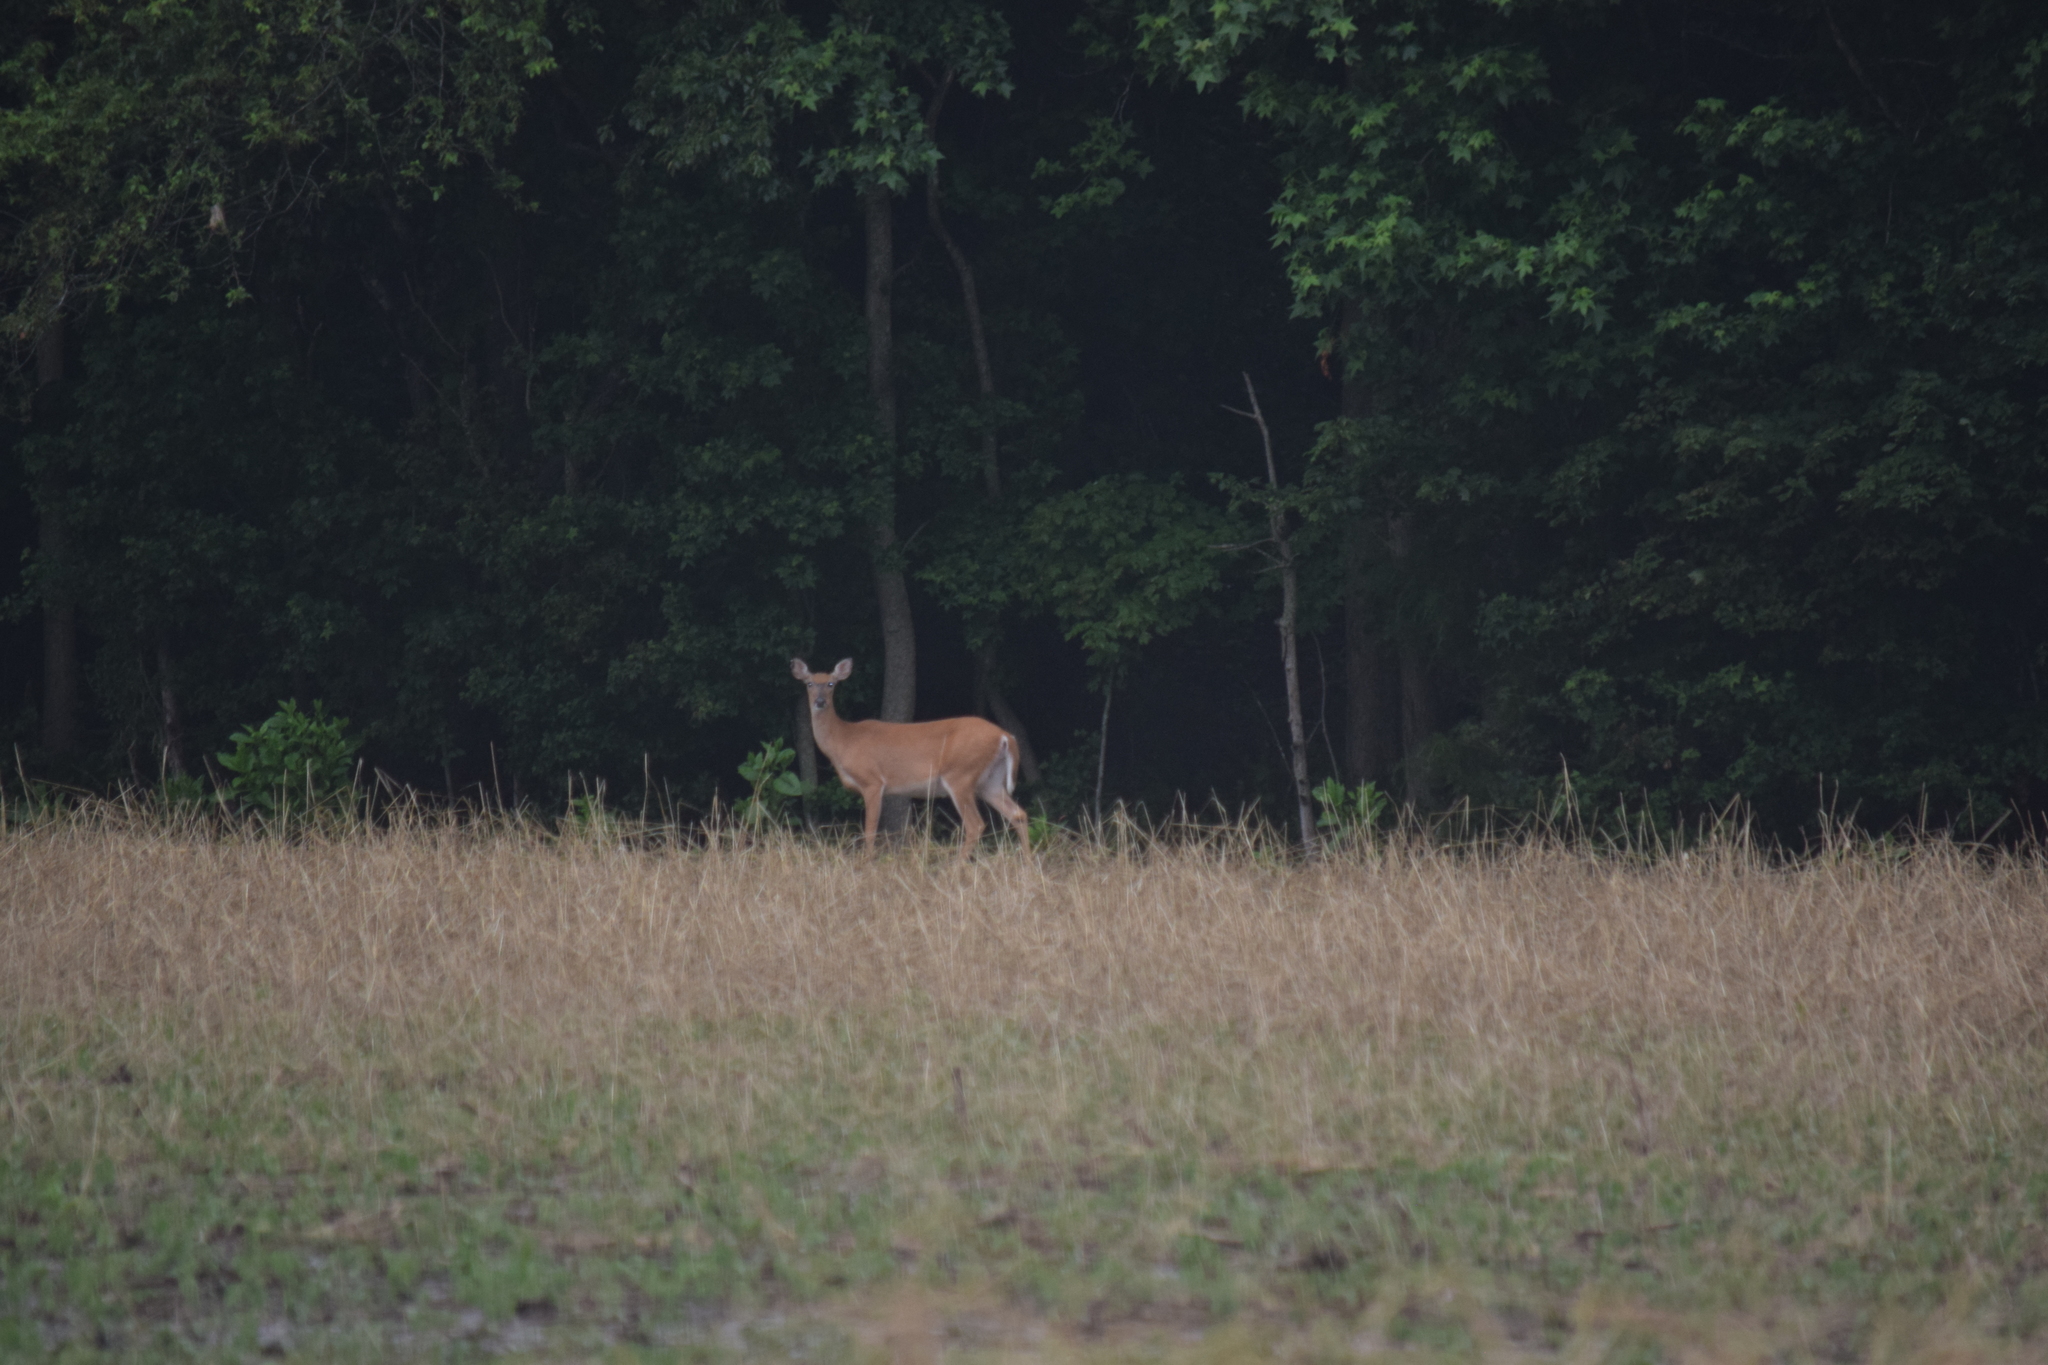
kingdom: Animalia
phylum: Chordata
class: Mammalia
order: Artiodactyla
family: Cervidae
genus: Odocoileus
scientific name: Odocoileus virginianus
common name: White-tailed deer
